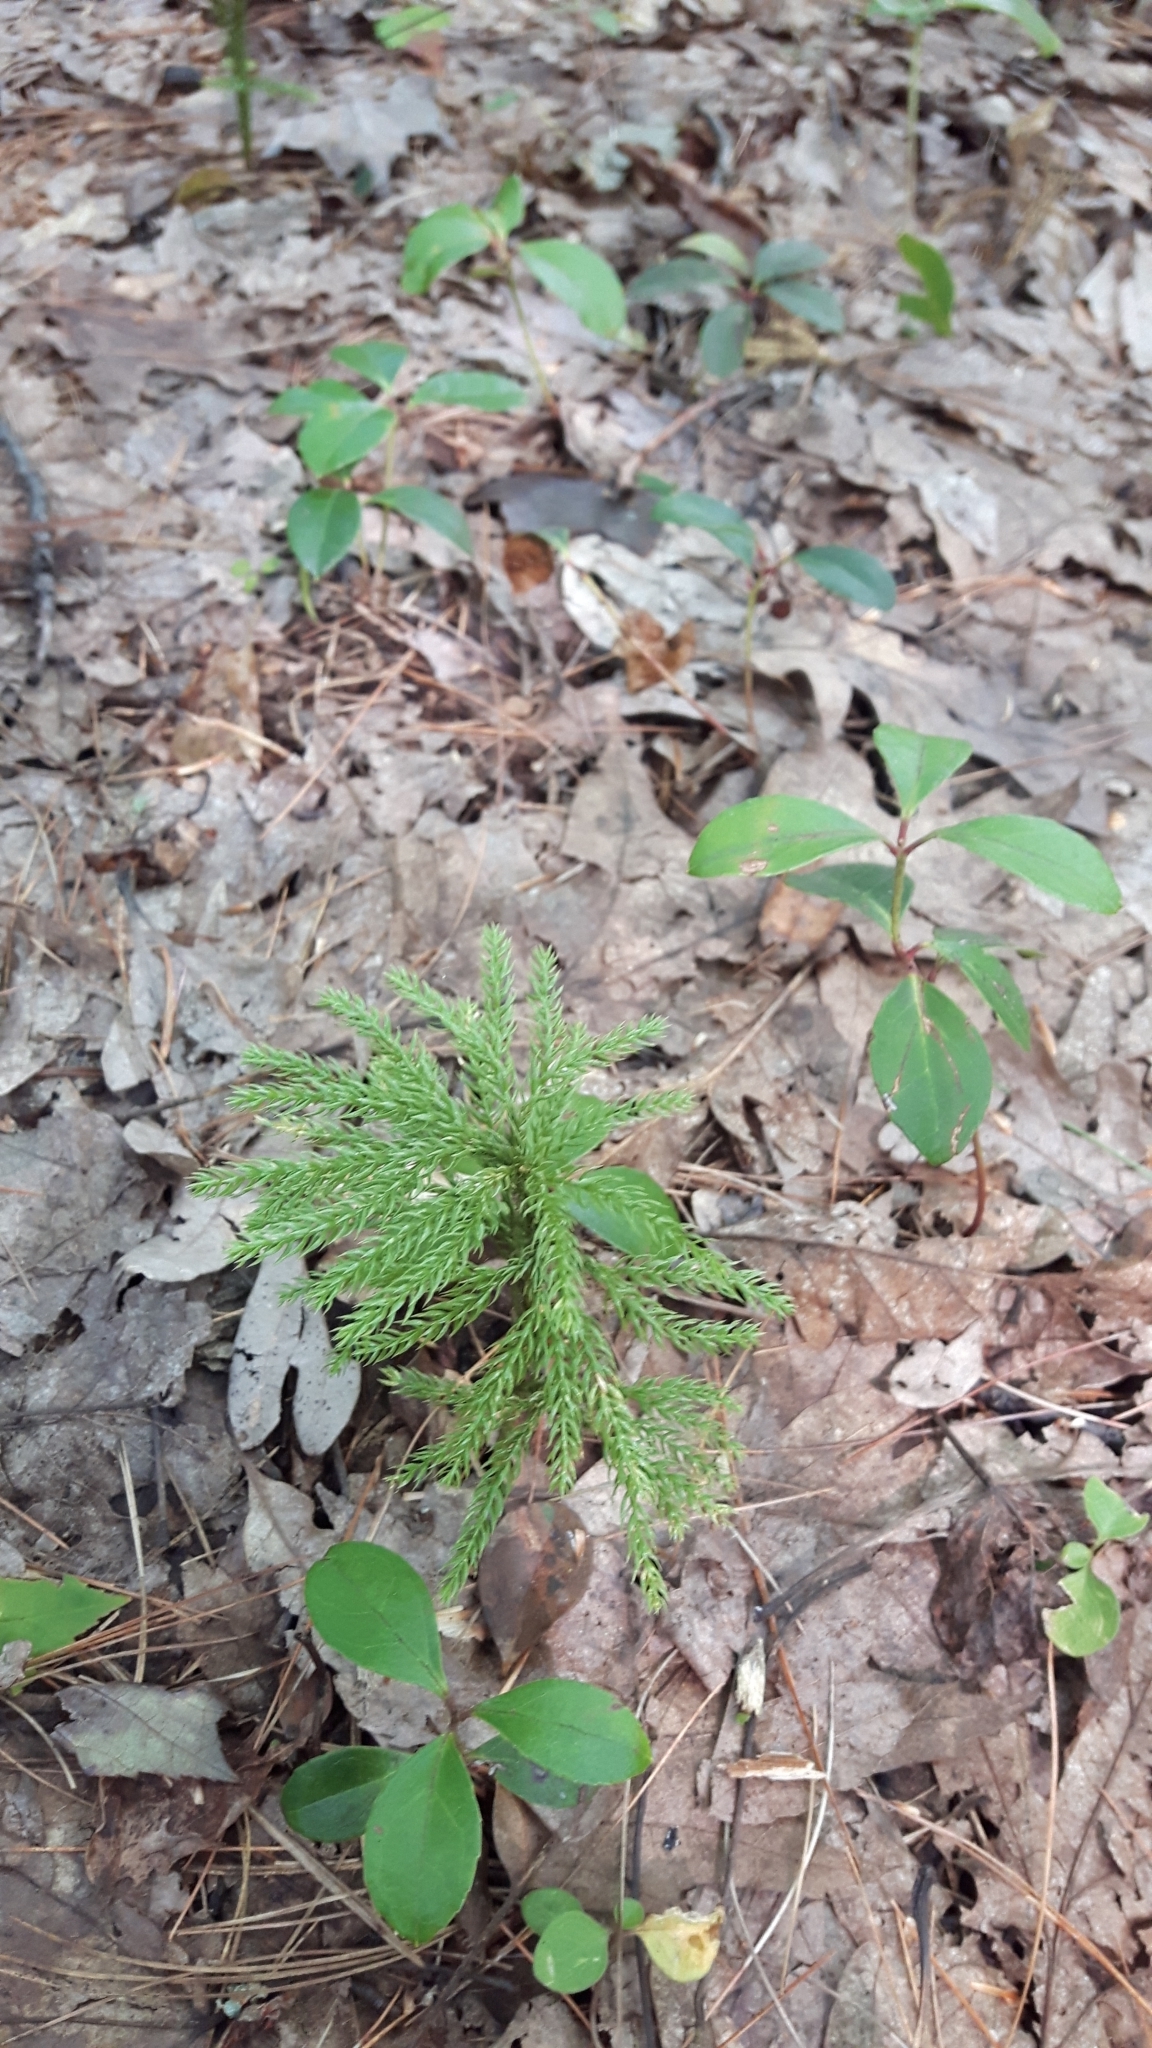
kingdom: Plantae
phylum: Tracheophyta
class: Lycopodiopsida
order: Lycopodiales
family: Lycopodiaceae
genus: Dendrolycopodium
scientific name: Dendrolycopodium hickeyi
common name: Hickey's clubmoss
